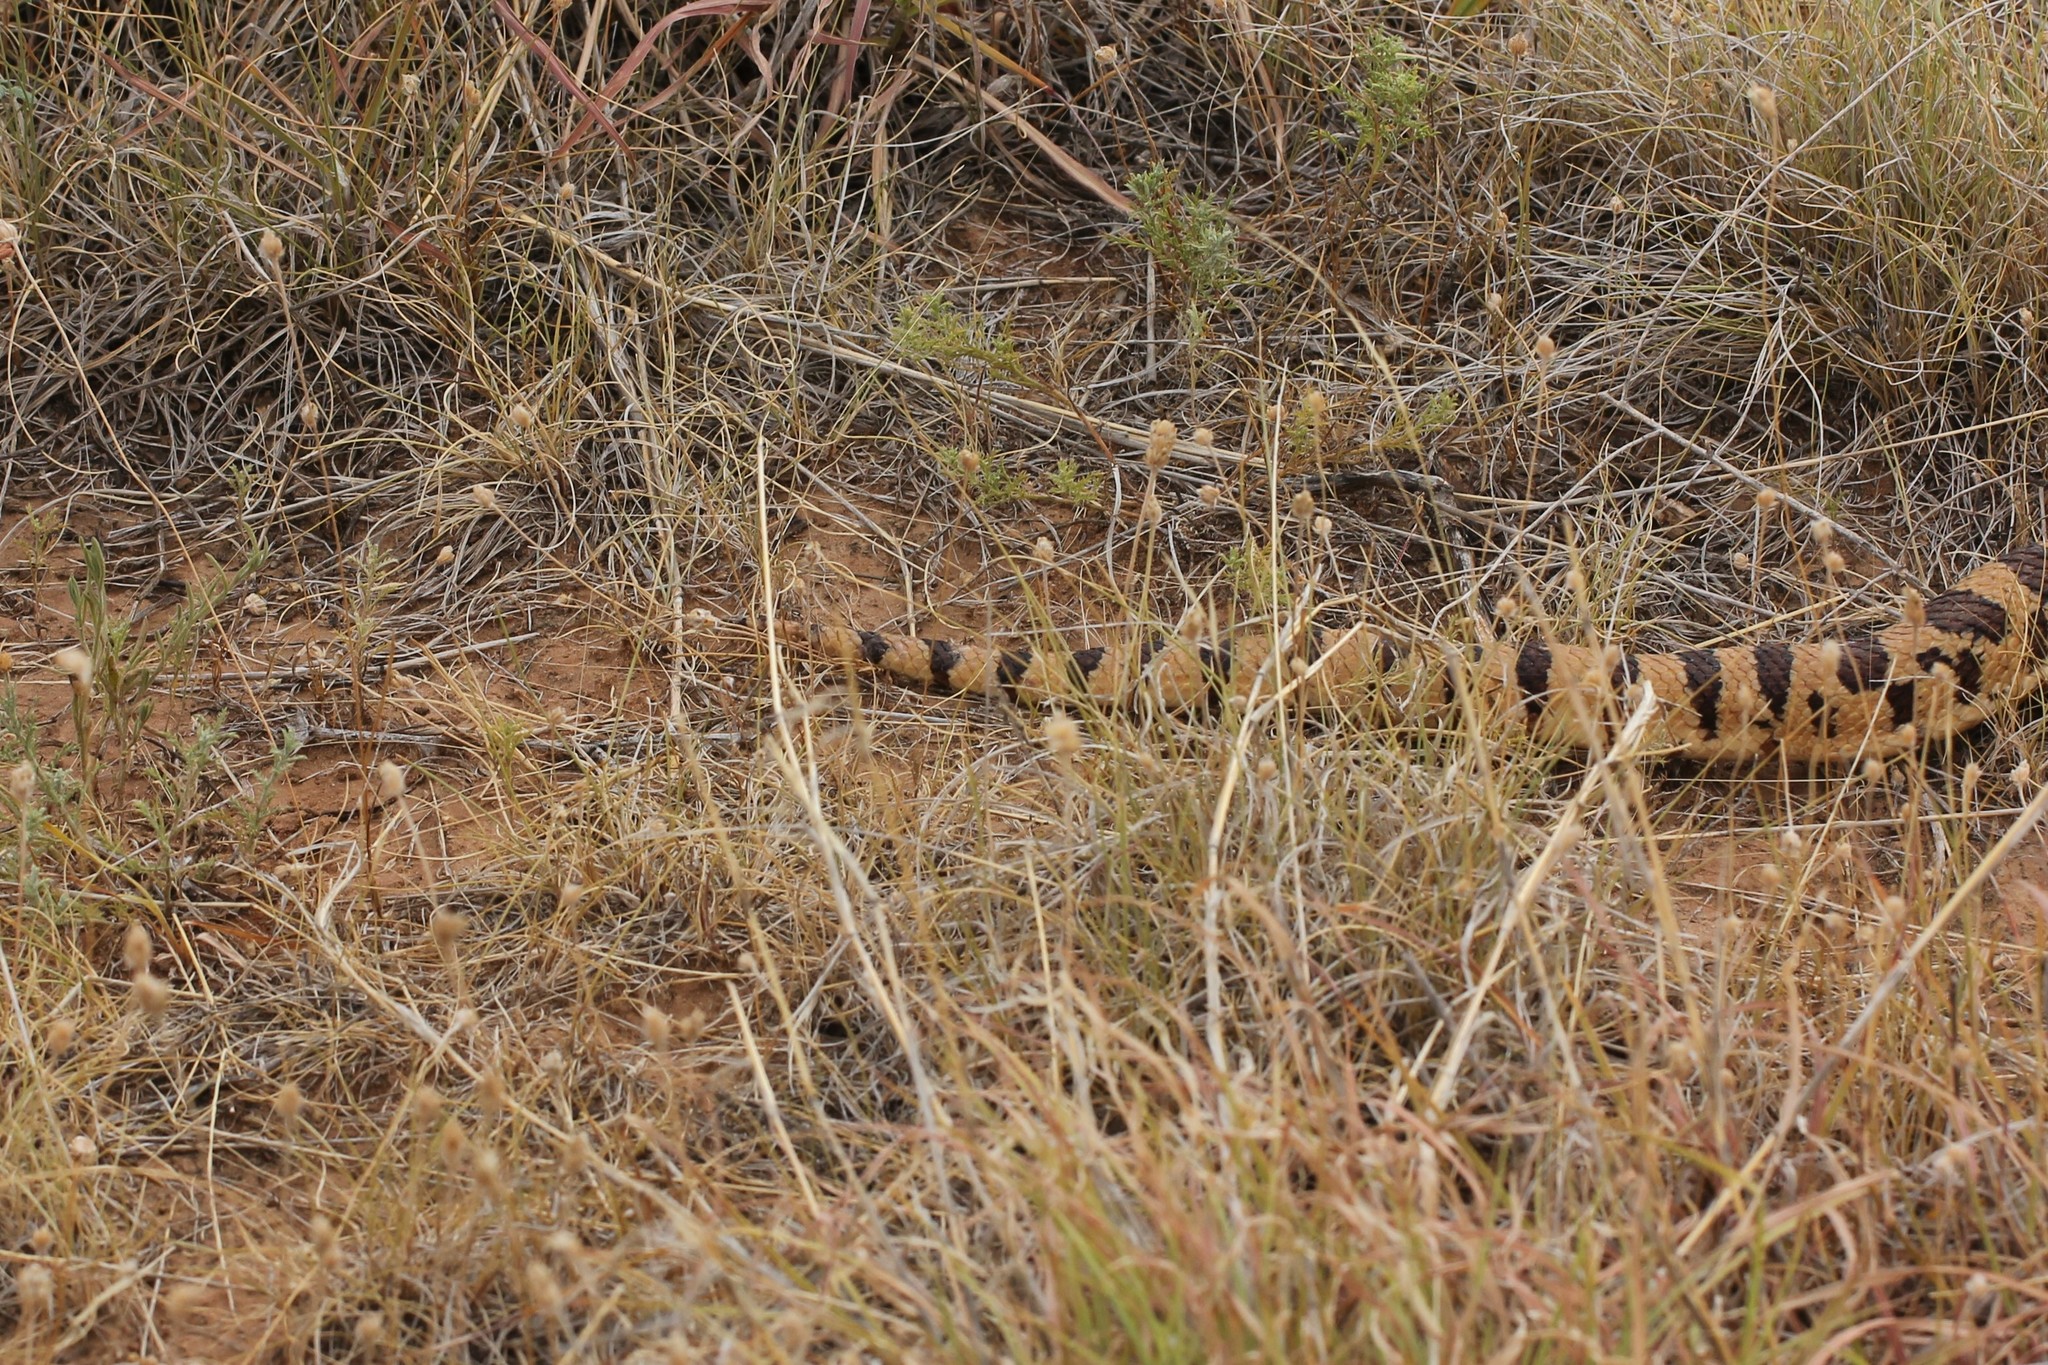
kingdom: Animalia
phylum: Chordata
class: Squamata
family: Colubridae
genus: Pituophis
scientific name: Pituophis catenifer
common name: Gopher snake
